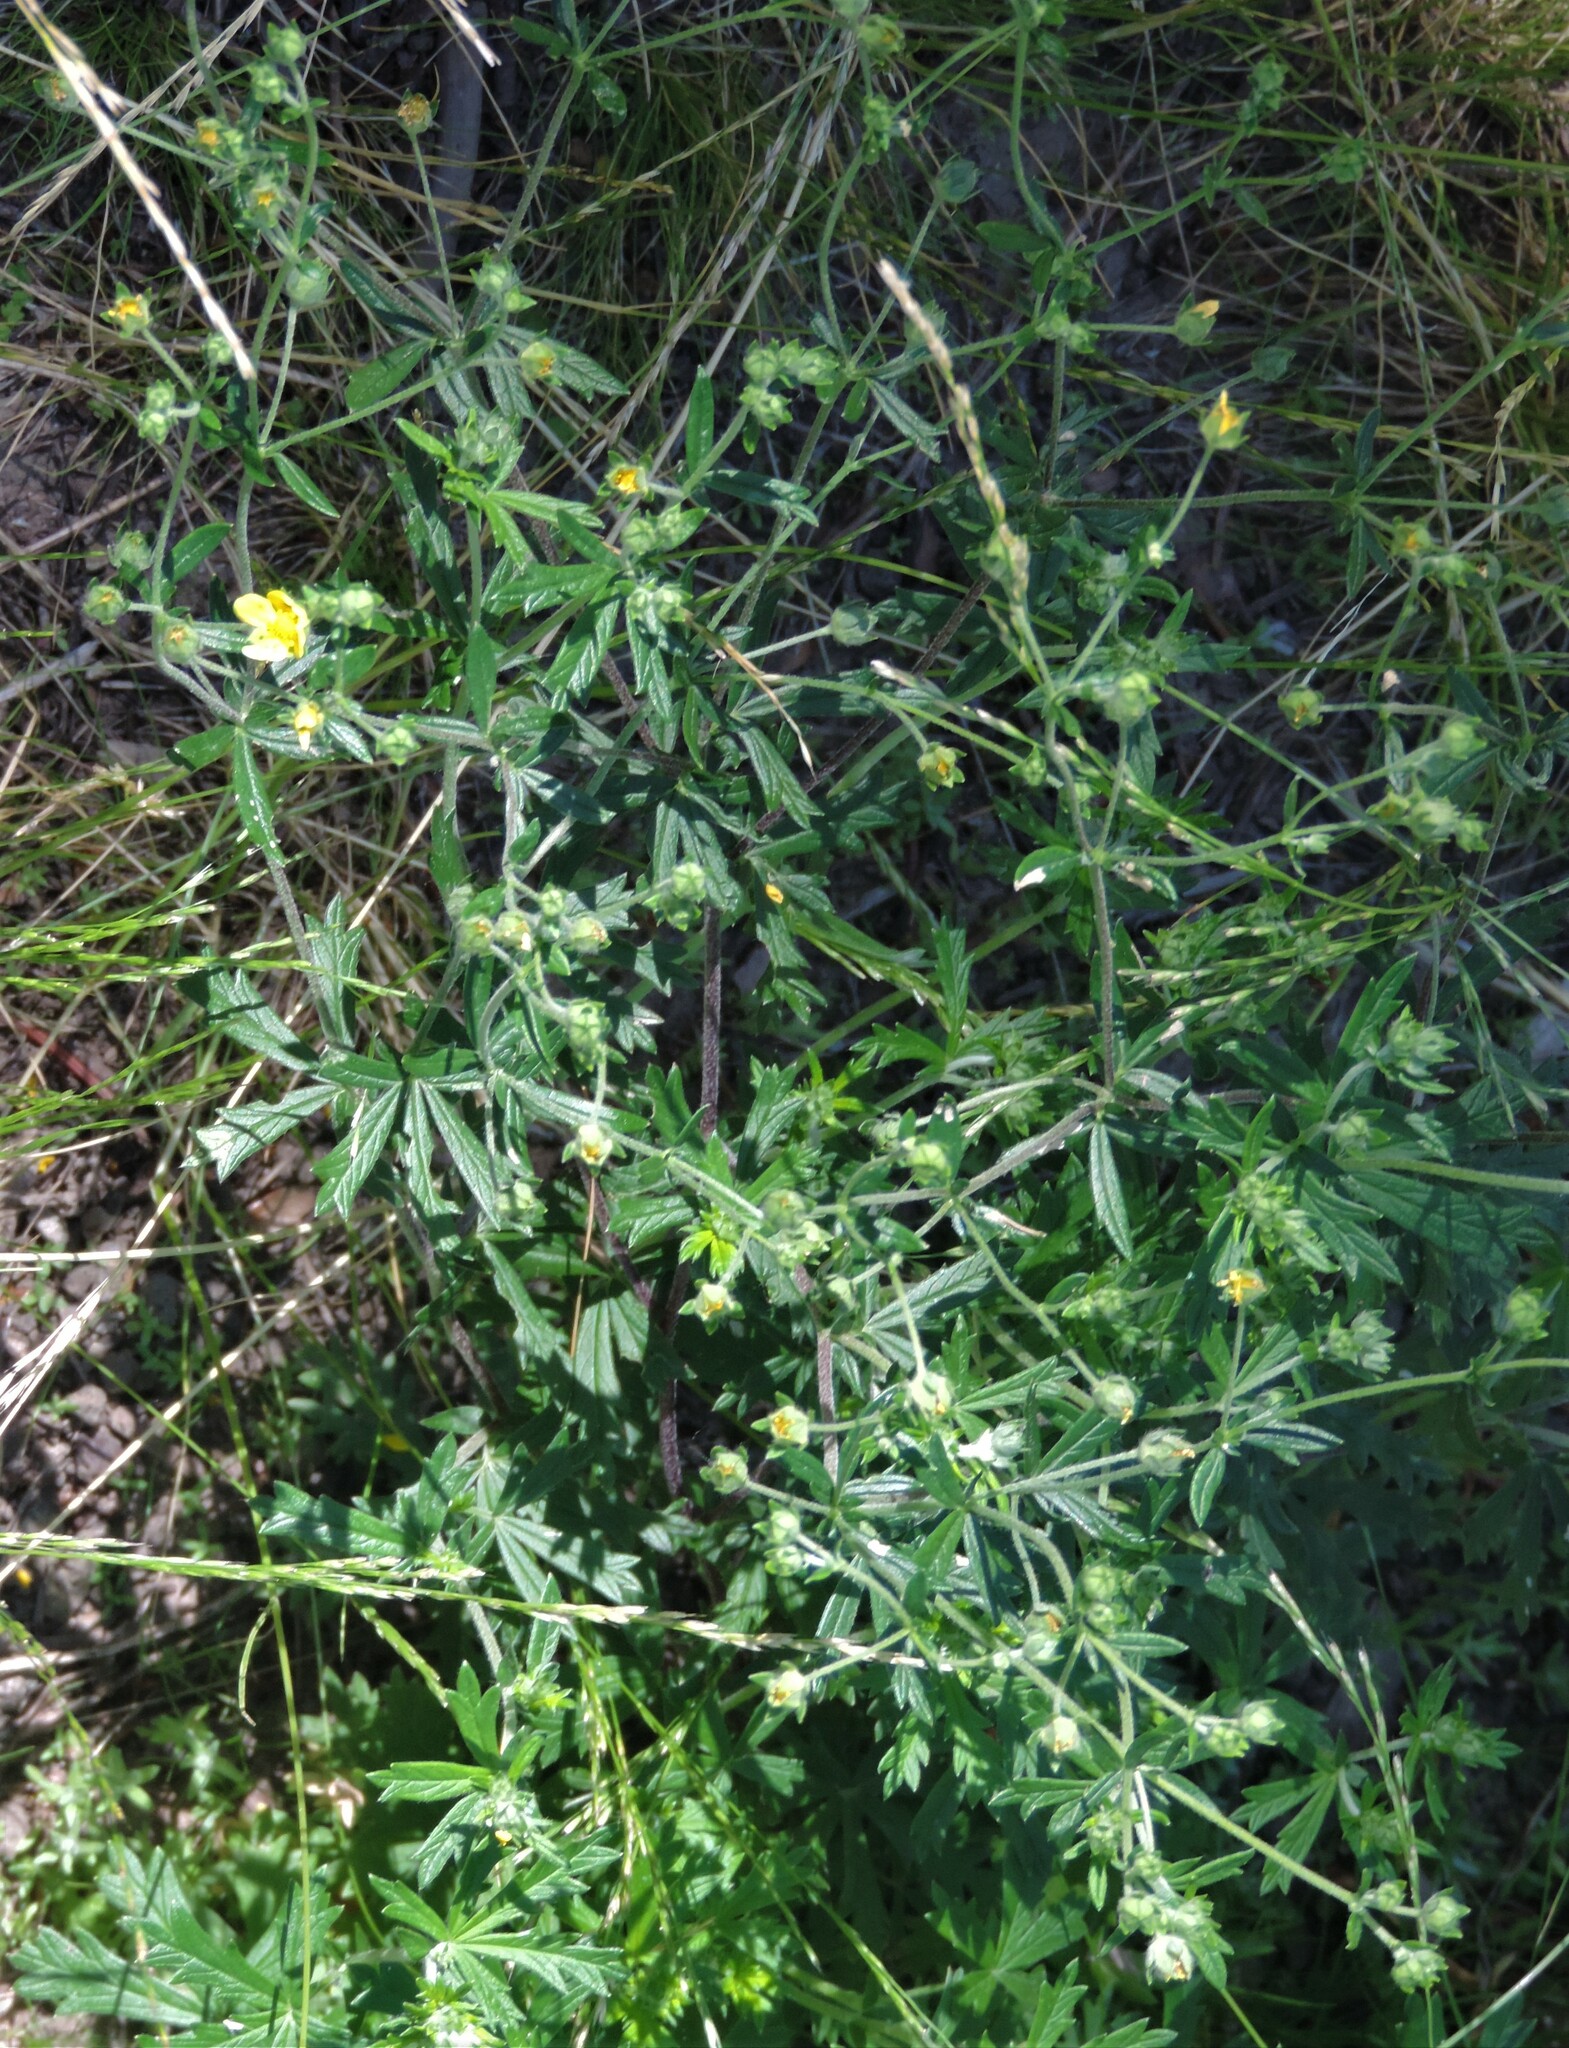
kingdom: Plantae
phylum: Tracheophyta
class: Magnoliopsida
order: Rosales
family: Rosaceae
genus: Potentilla
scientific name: Potentilla argentea
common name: Hoary cinquefoil
